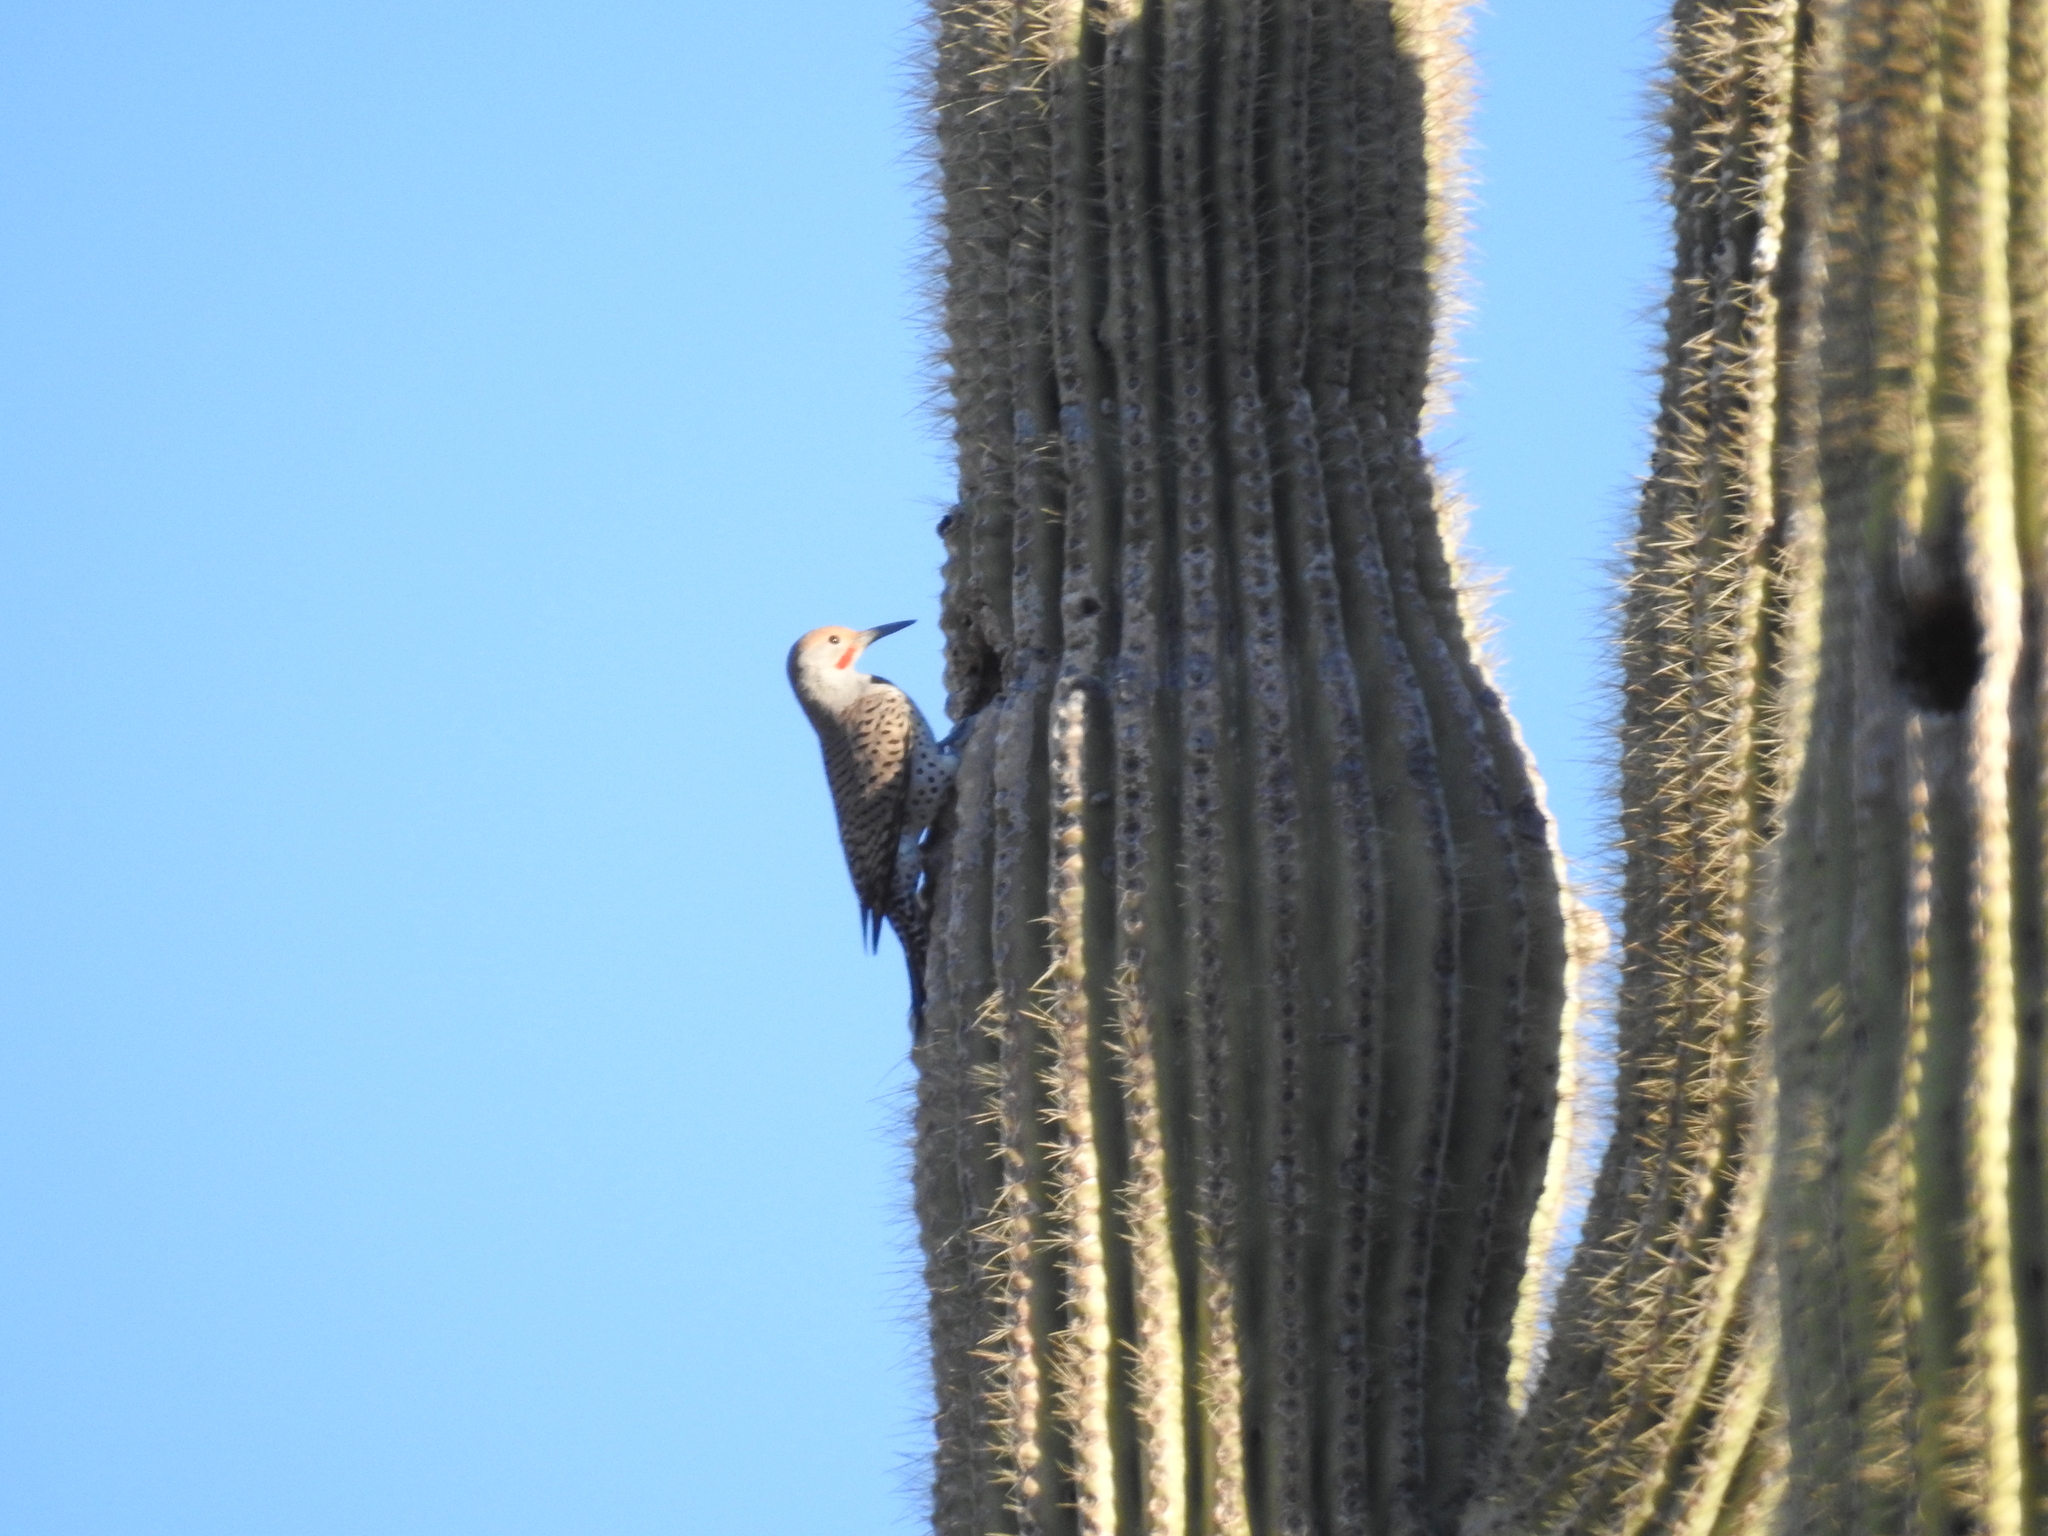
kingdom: Animalia
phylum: Chordata
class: Aves
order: Piciformes
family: Picidae
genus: Colaptes
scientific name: Colaptes chrysoides
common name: Gilded flicker
